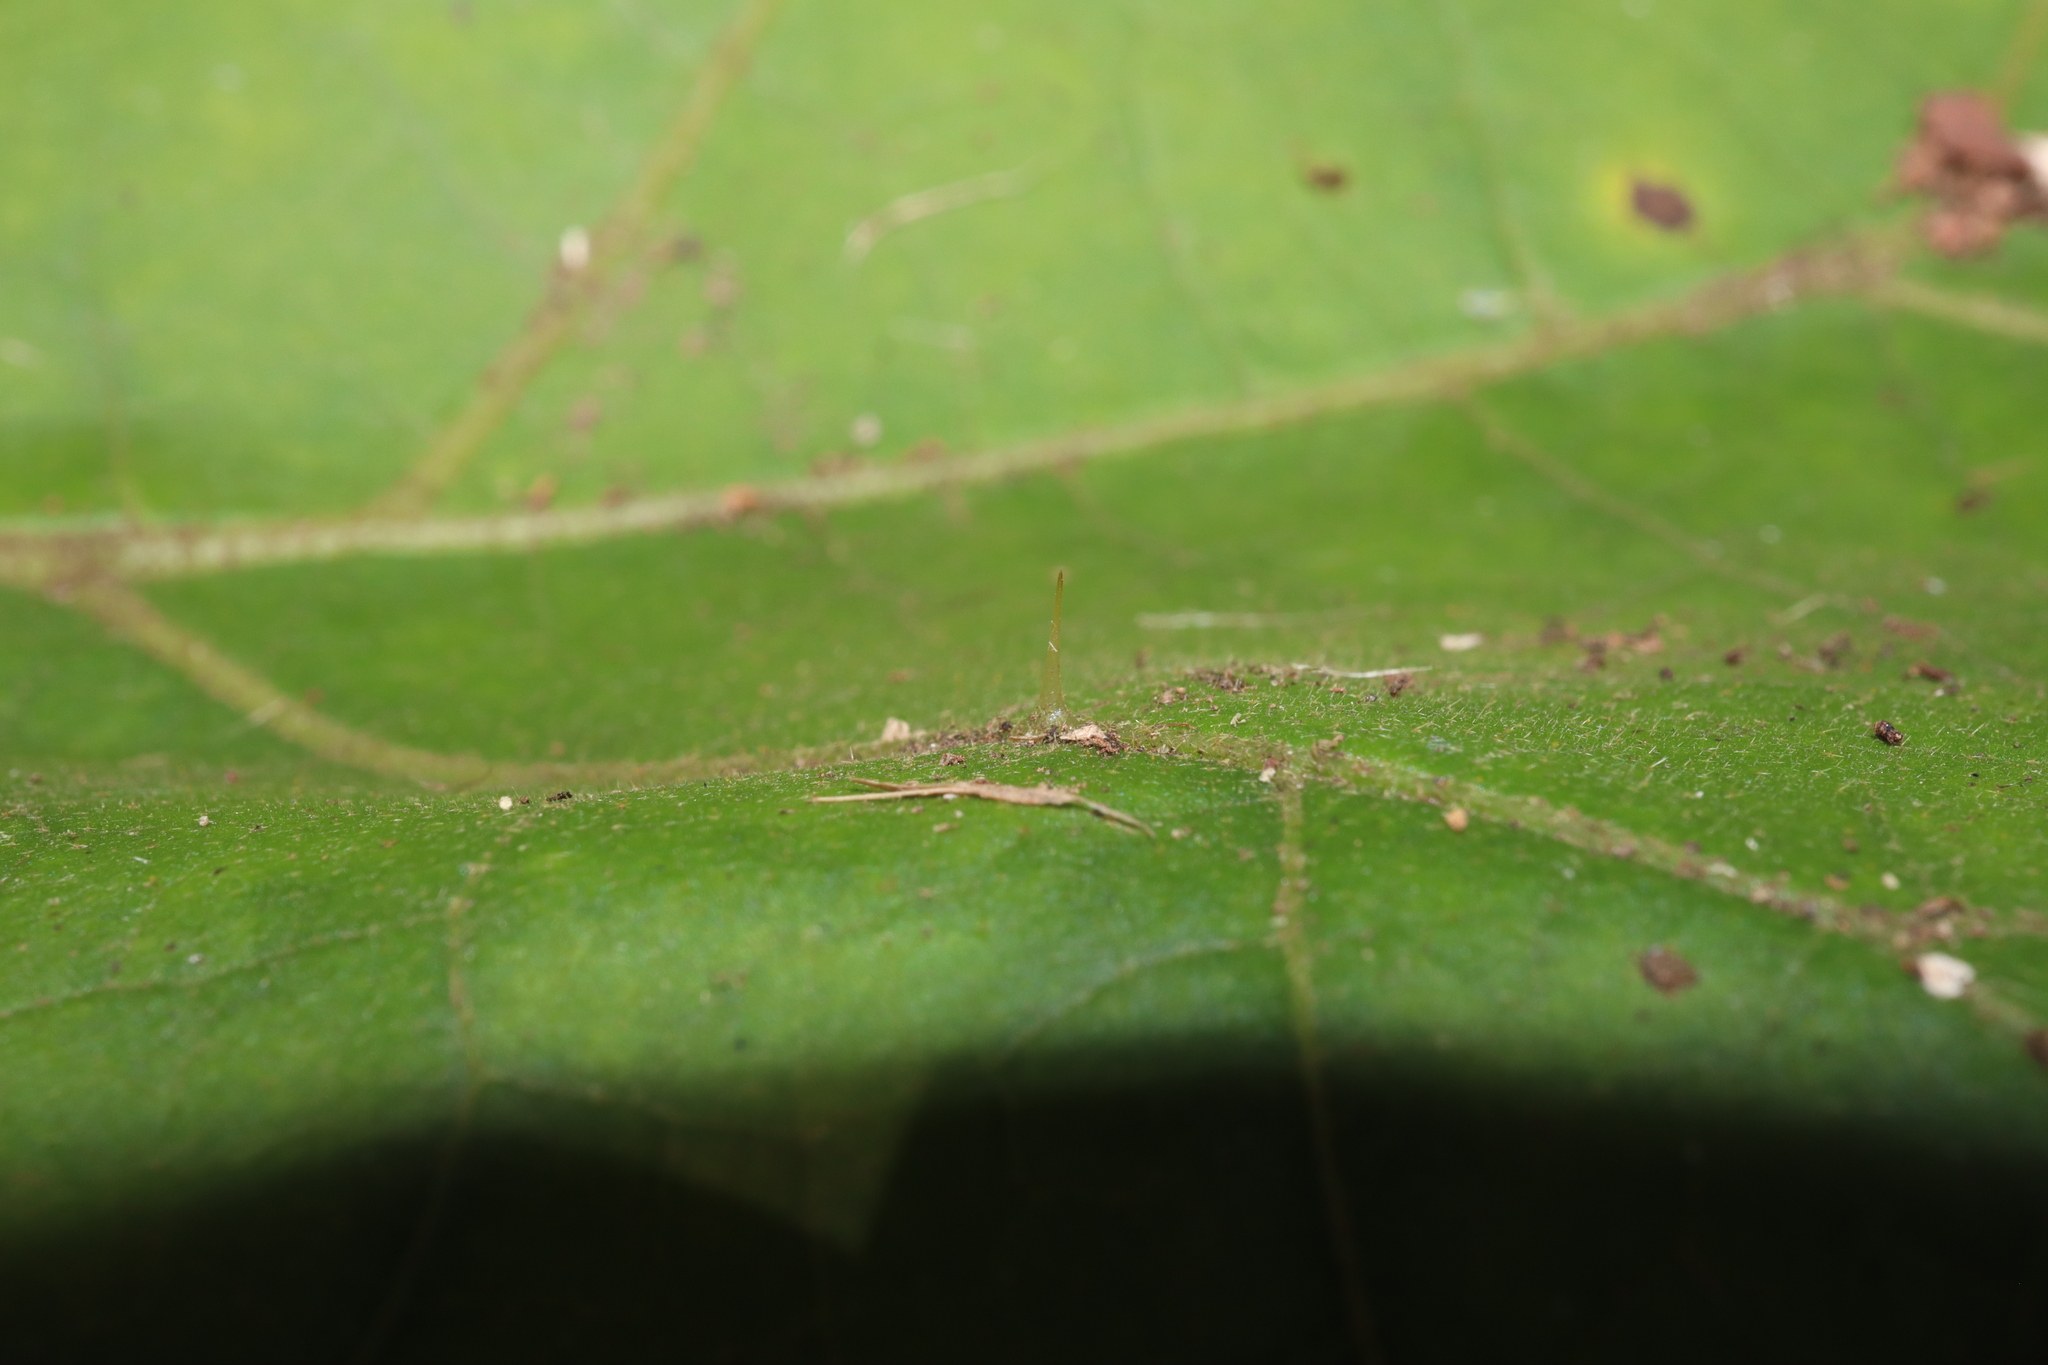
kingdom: Plantae
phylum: Tracheophyta
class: Magnoliopsida
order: Solanales
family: Solanaceae
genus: Solanum
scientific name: Solanum torvum
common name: Turkey berry
